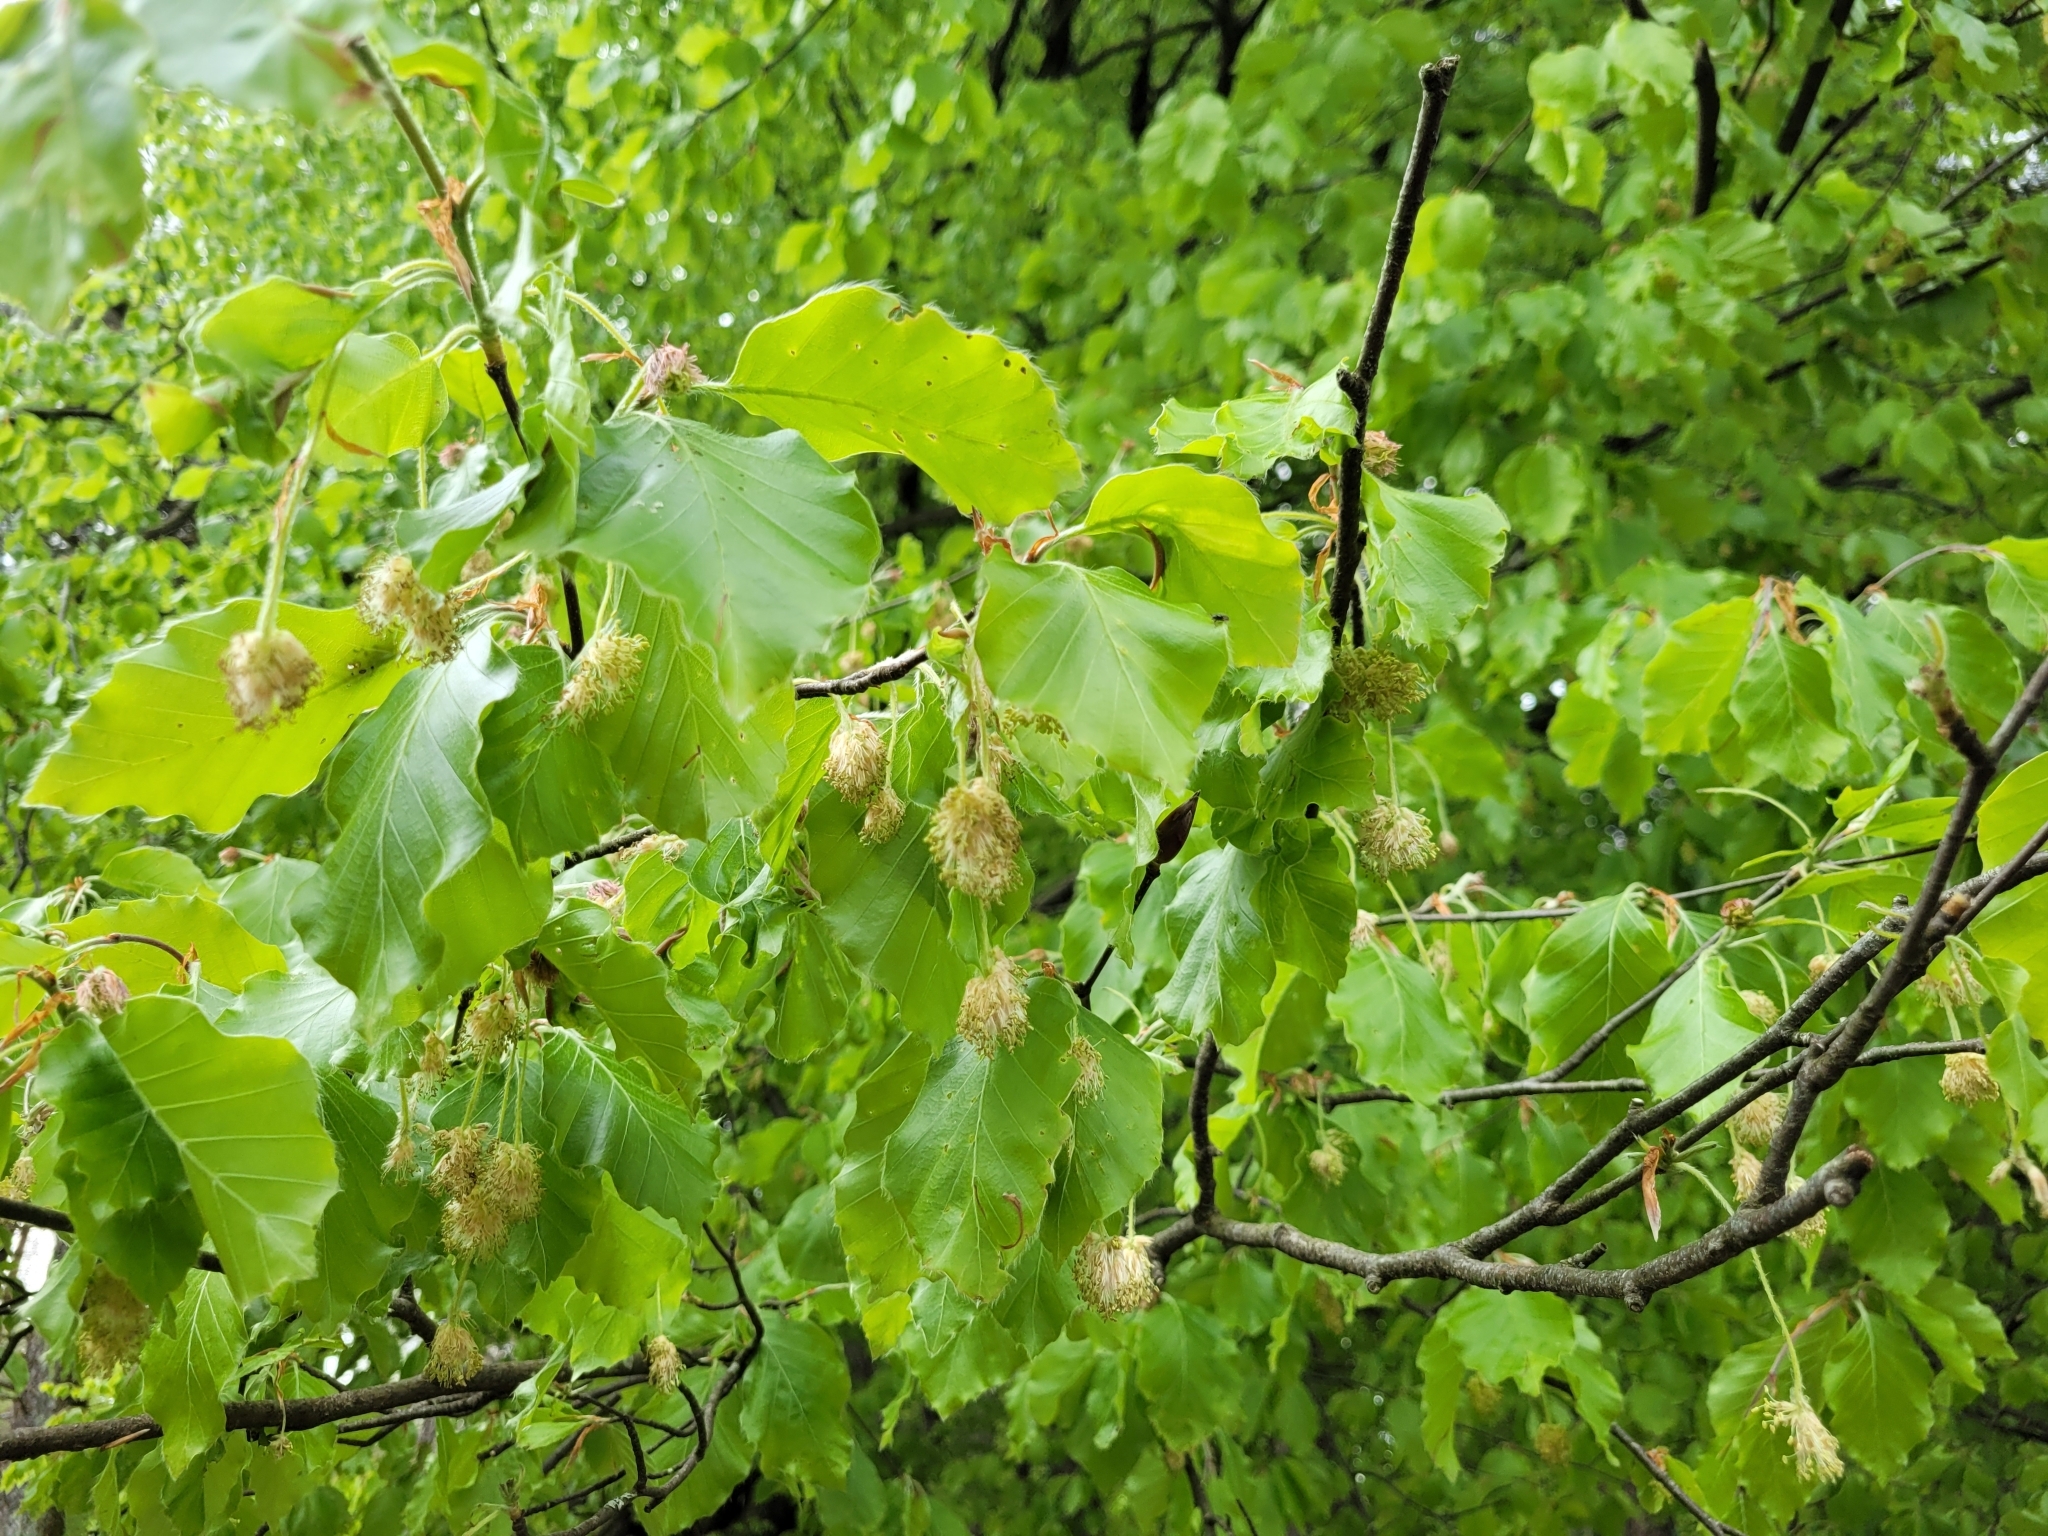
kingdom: Plantae
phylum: Tracheophyta
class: Magnoliopsida
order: Fagales
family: Fagaceae
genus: Fagus
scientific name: Fagus sylvatica
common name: Beech
